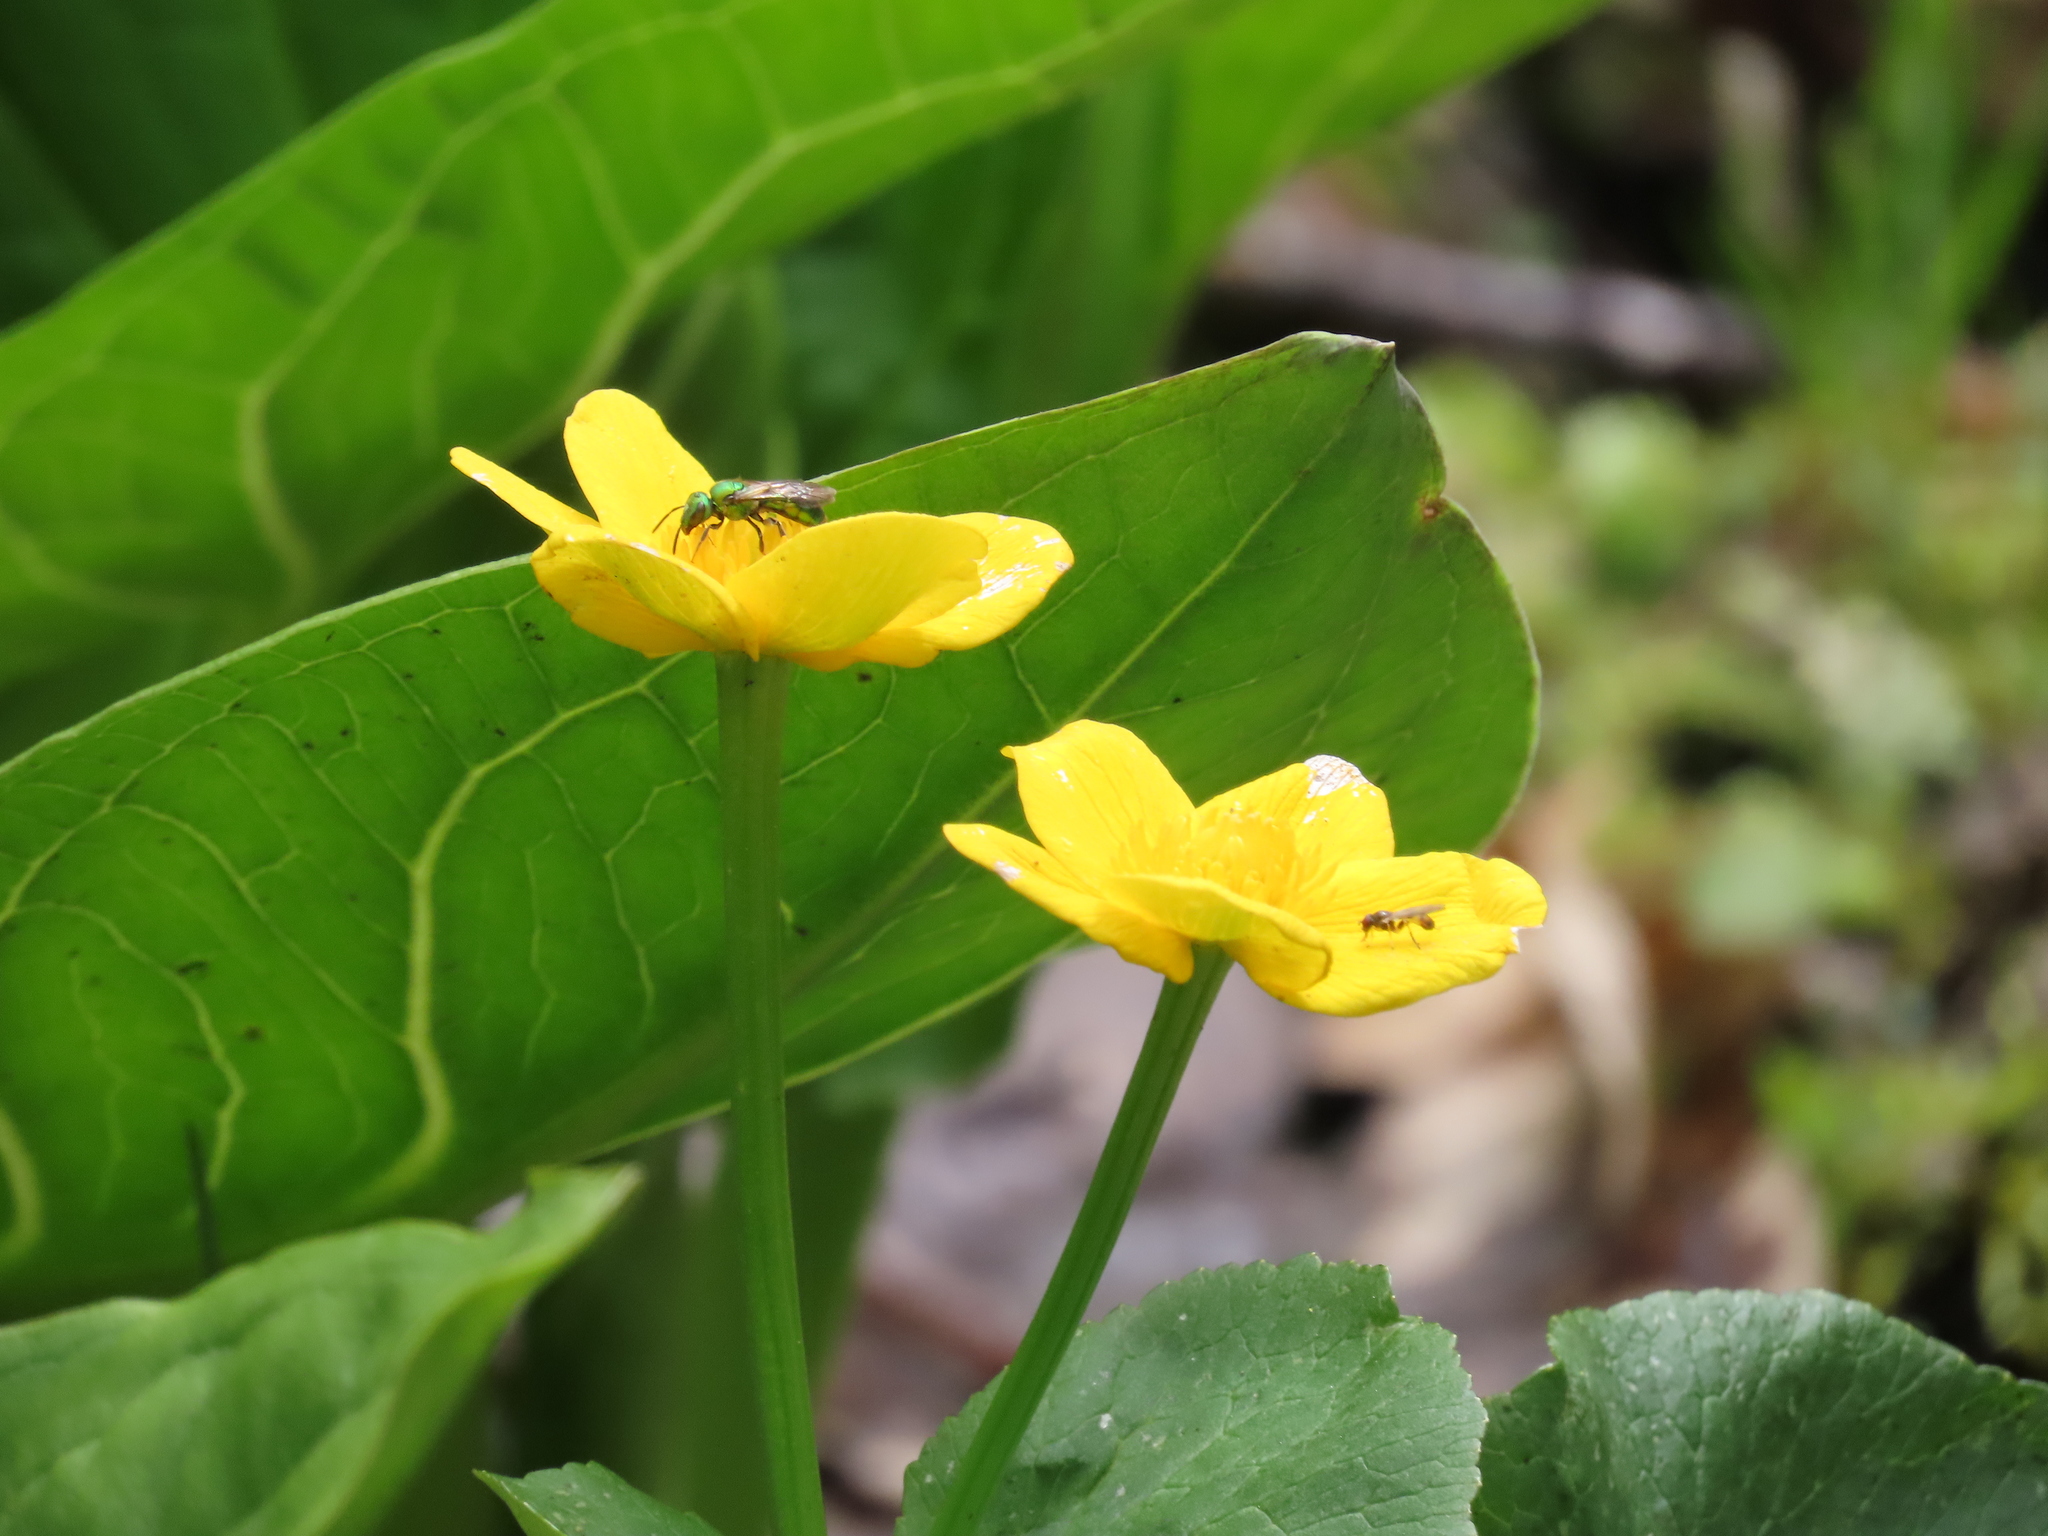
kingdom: Plantae
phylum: Tracheophyta
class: Magnoliopsida
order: Ranunculales
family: Ranunculaceae
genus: Caltha
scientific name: Caltha palustris
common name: Marsh marigold
